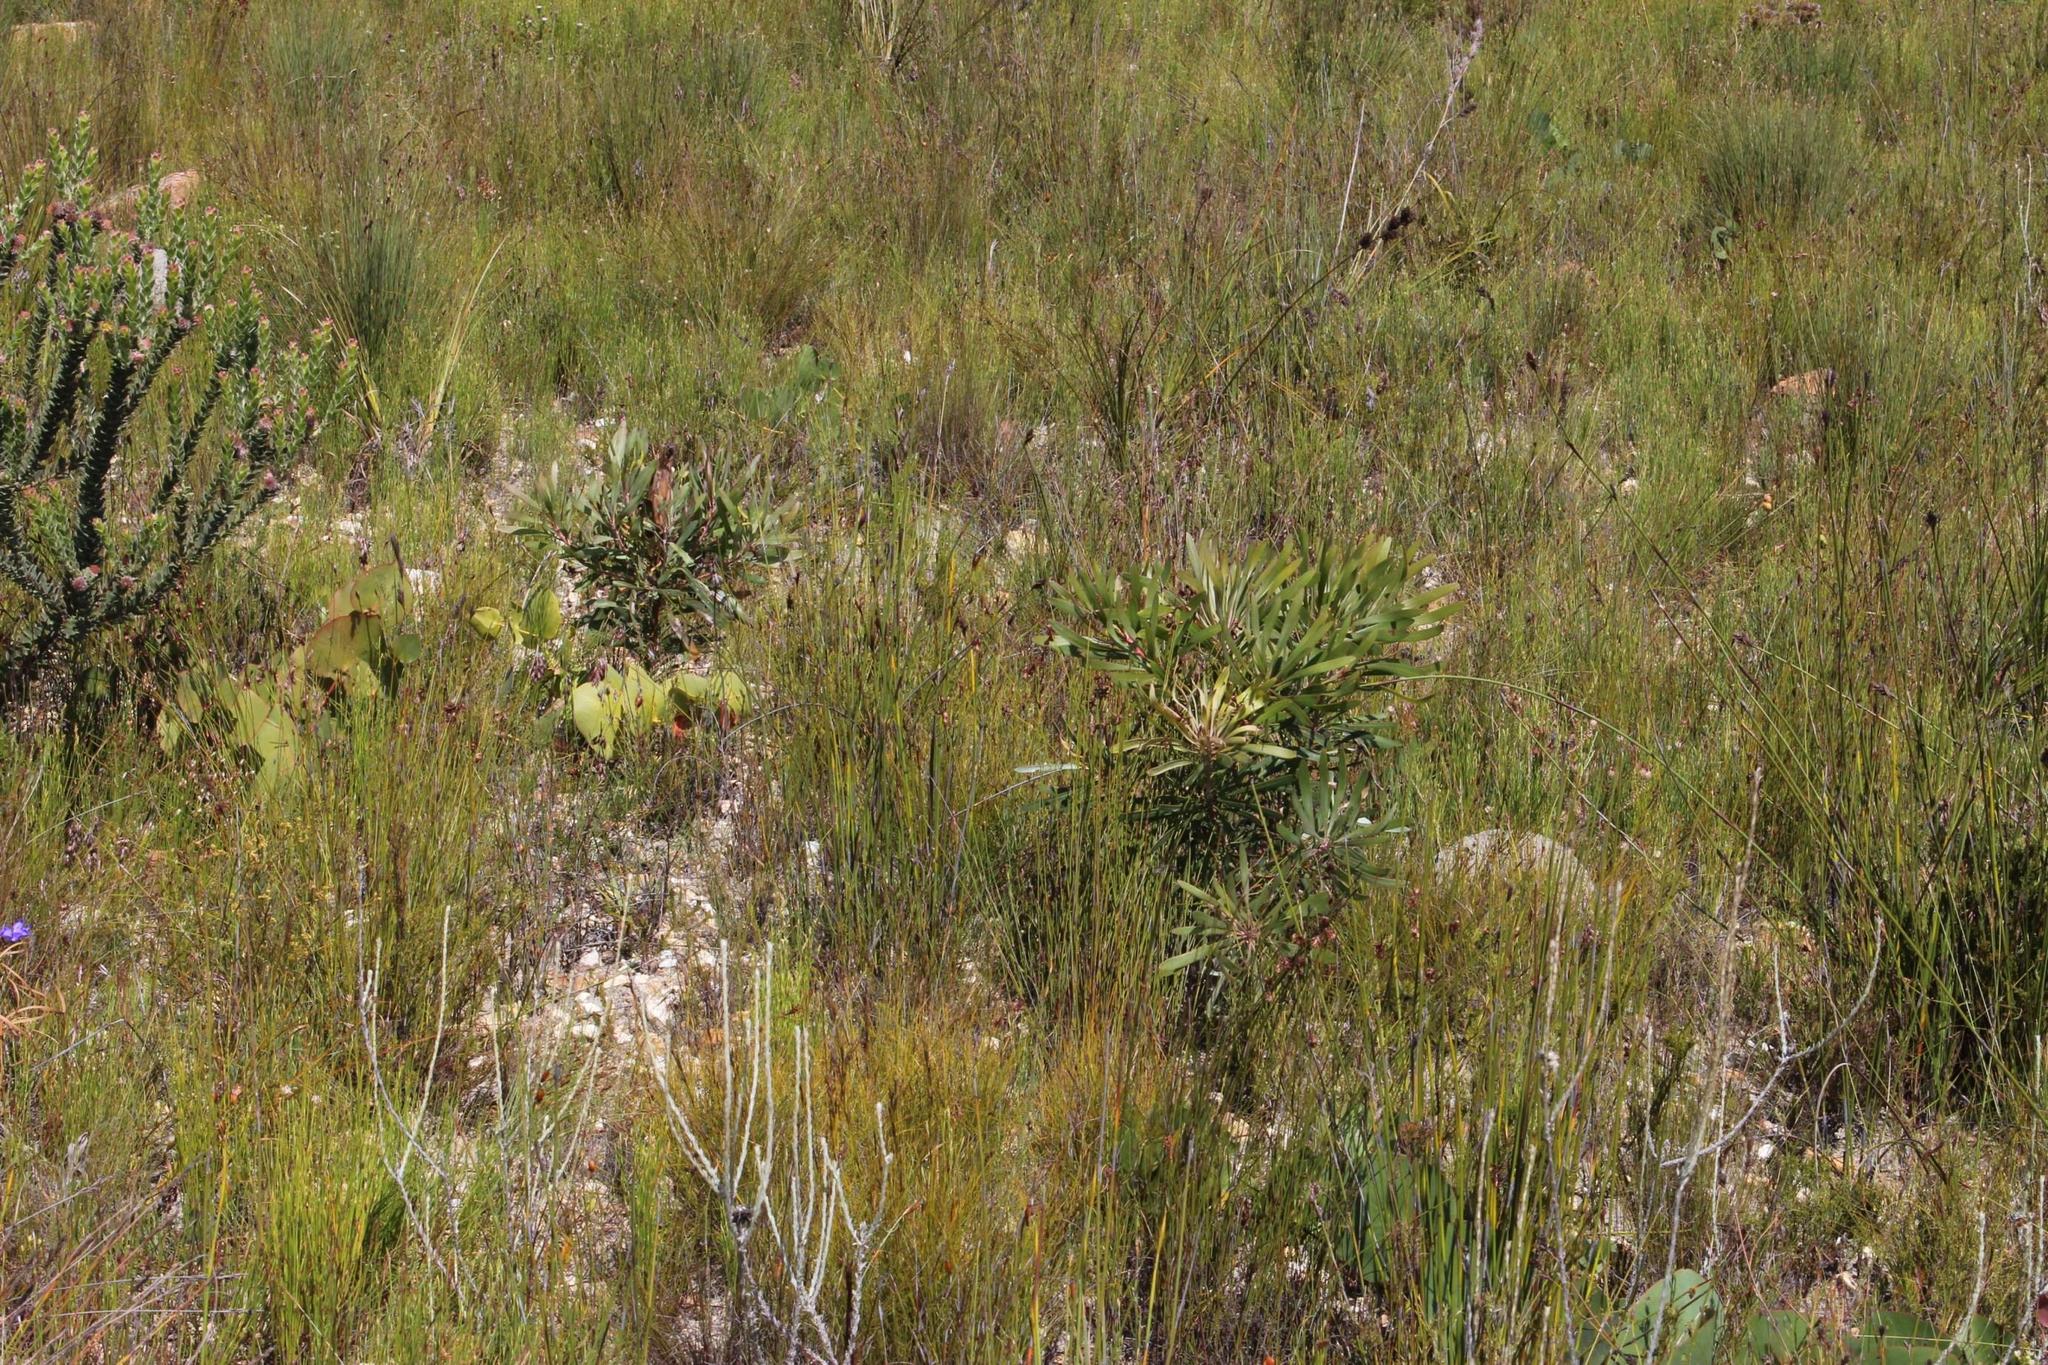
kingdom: Plantae
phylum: Tracheophyta
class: Magnoliopsida
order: Proteales
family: Proteaceae
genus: Protea
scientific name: Protea longifolia
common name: Long-leaf sugarbush
